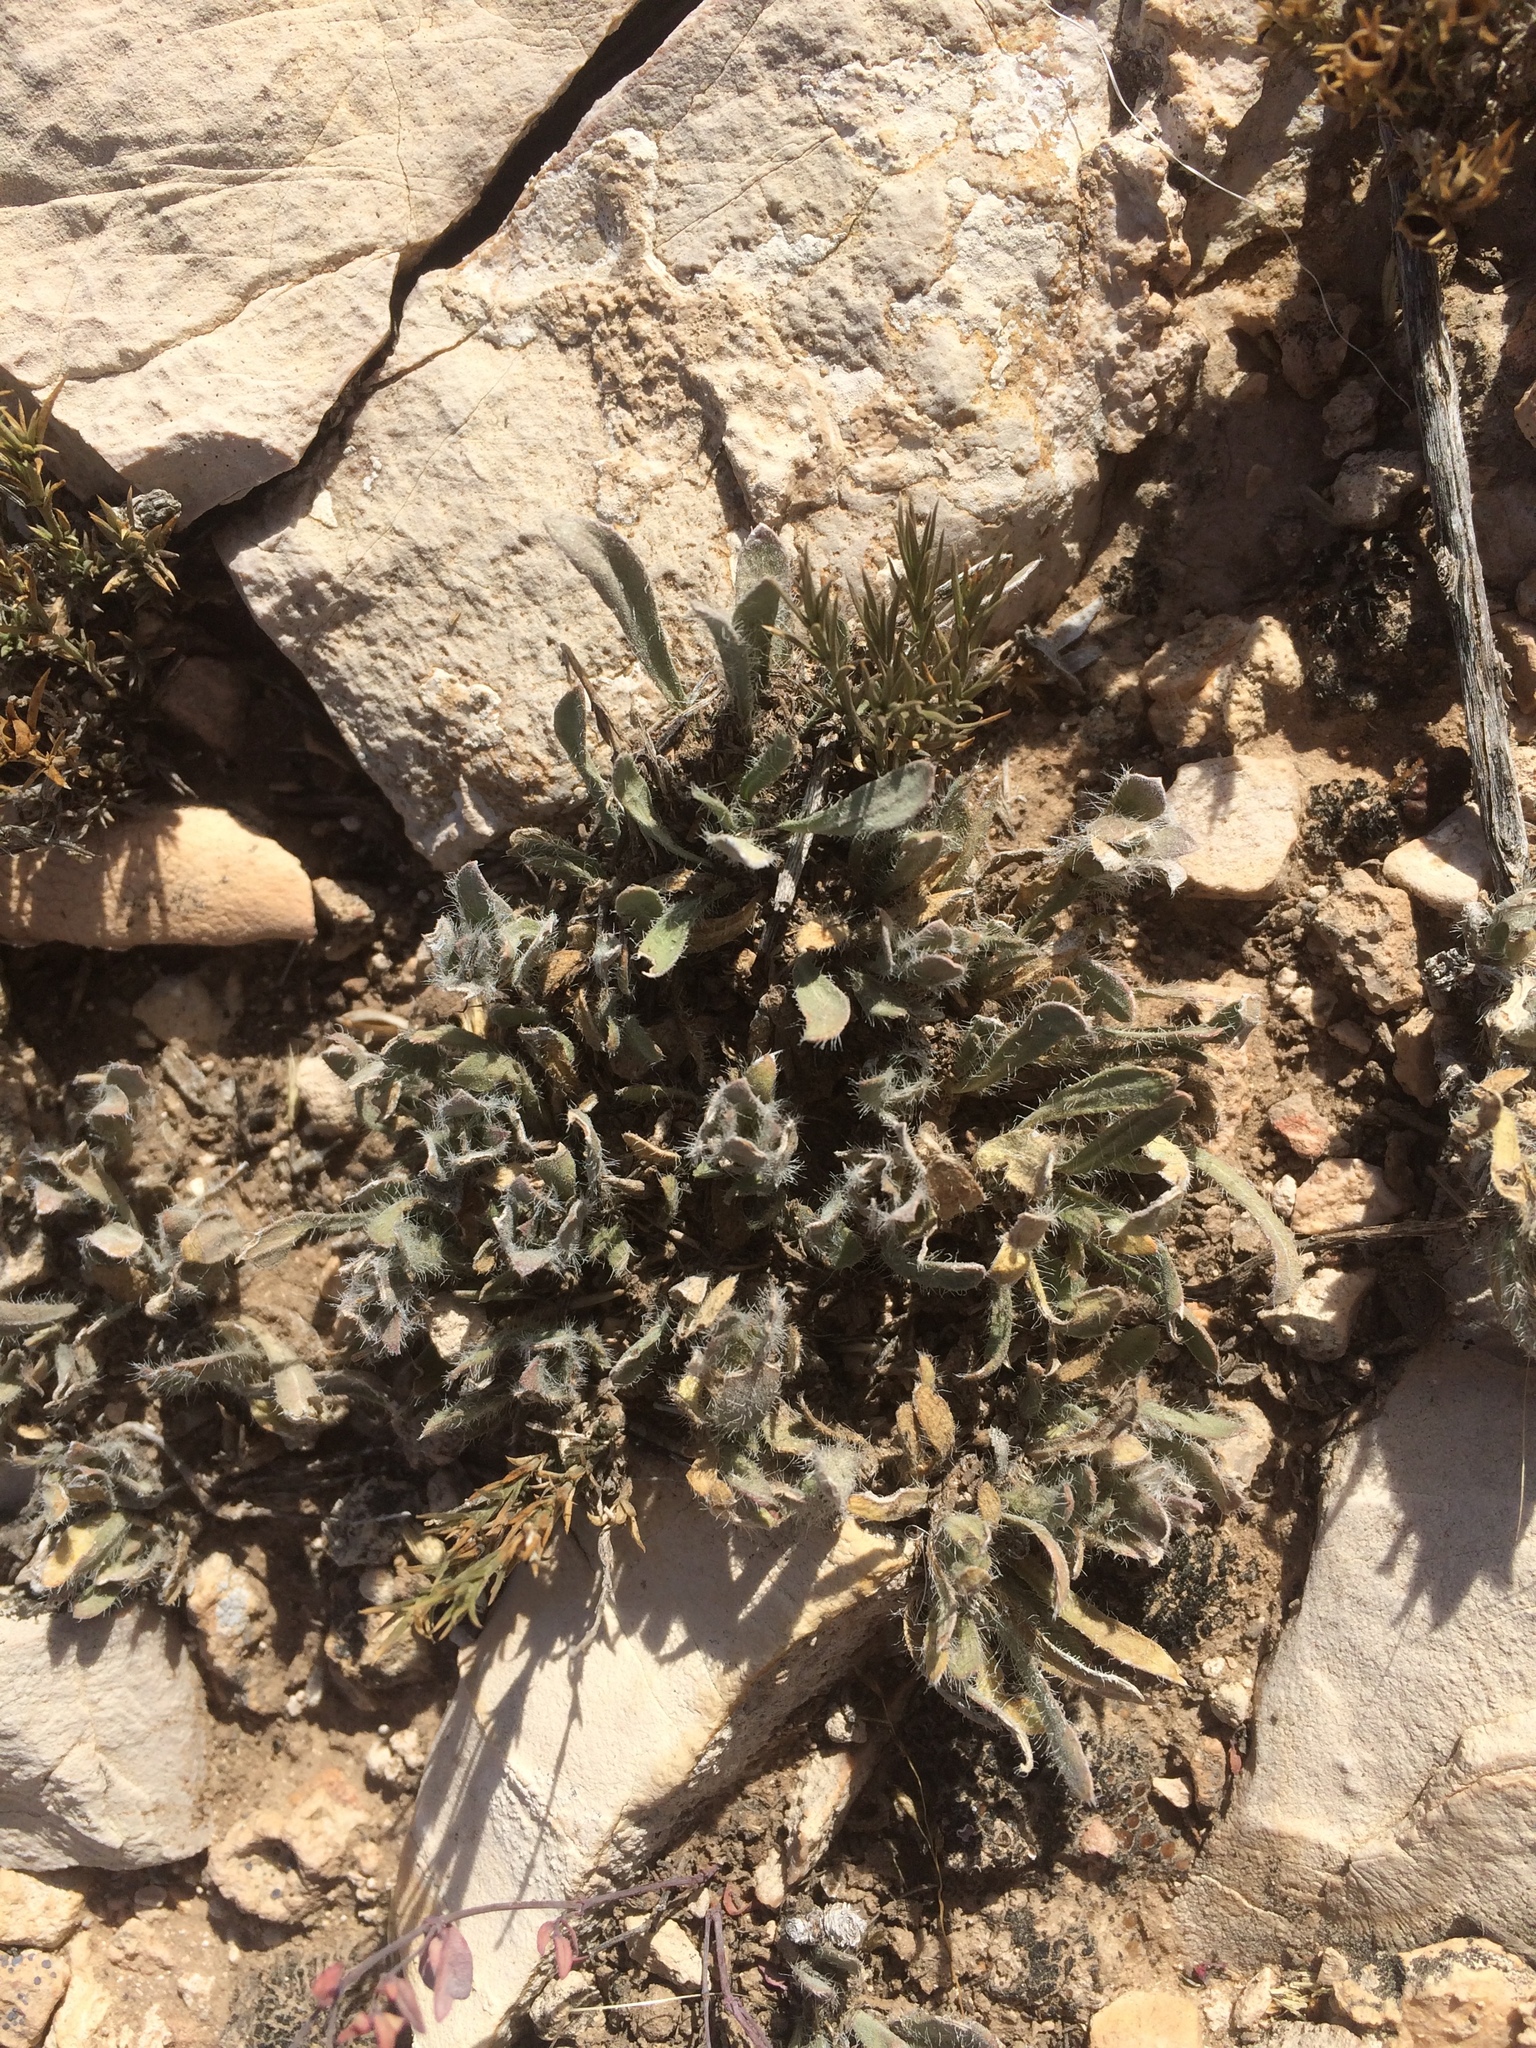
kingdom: Plantae
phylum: Tracheophyta
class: Magnoliopsida
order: Lamiales
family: Acanthaceae
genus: Stenandrium
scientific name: Stenandrium barbatum
